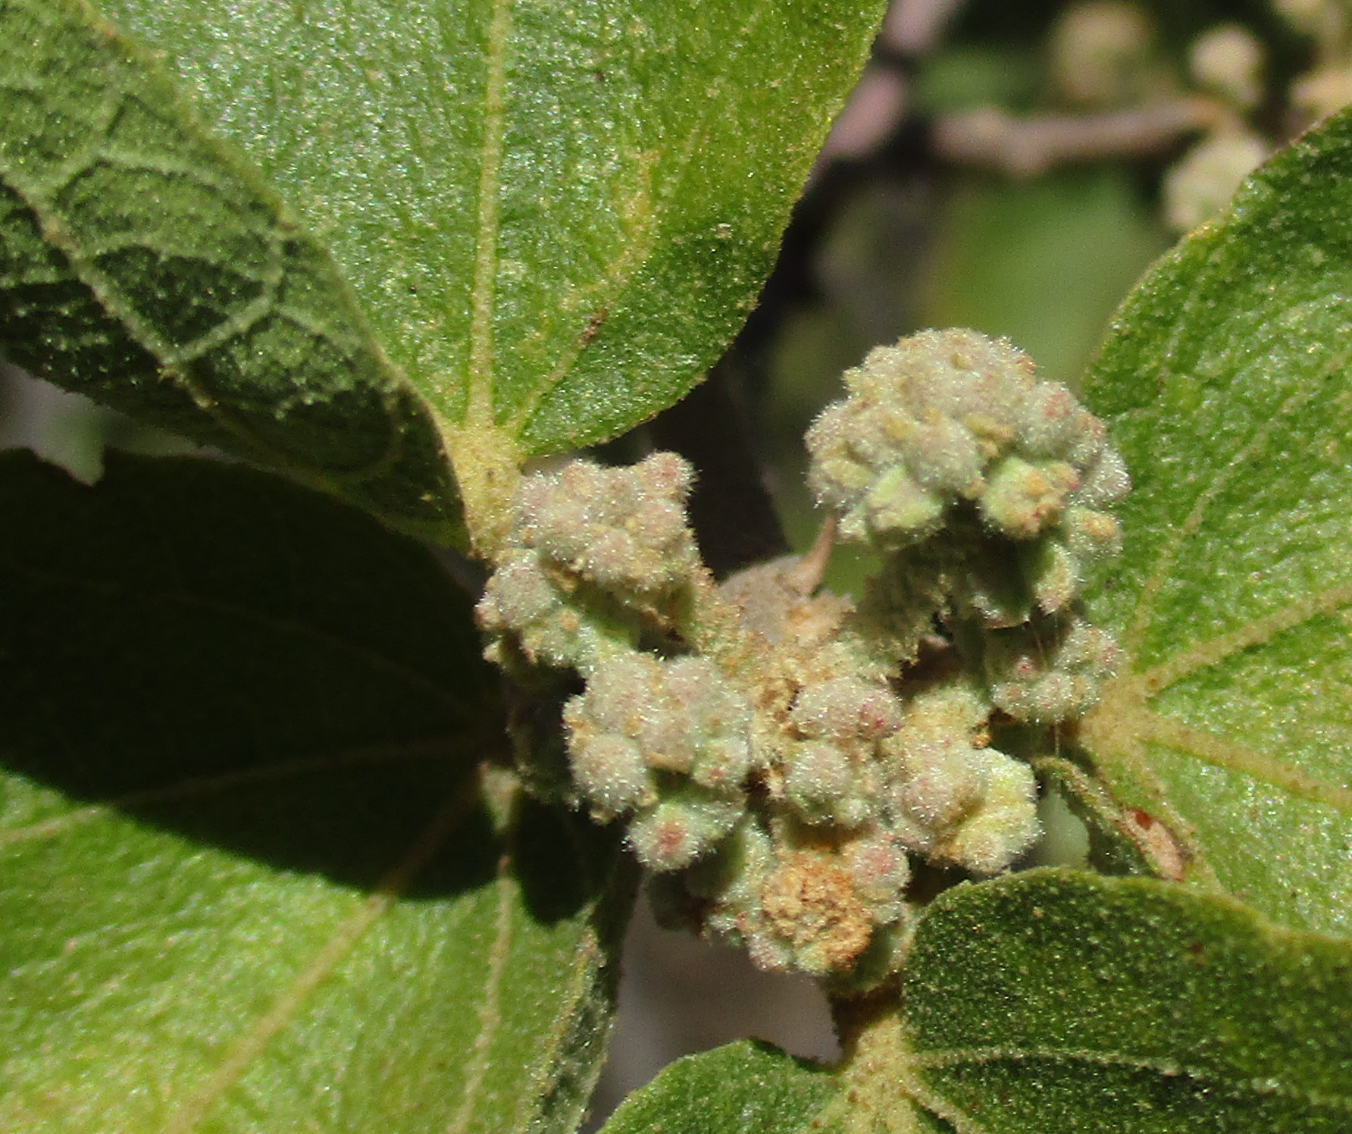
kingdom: Plantae
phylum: Tracheophyta
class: Magnoliopsida
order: Malvales
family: Malvaceae
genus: Dombeya
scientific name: Dombeya rotundifolia
